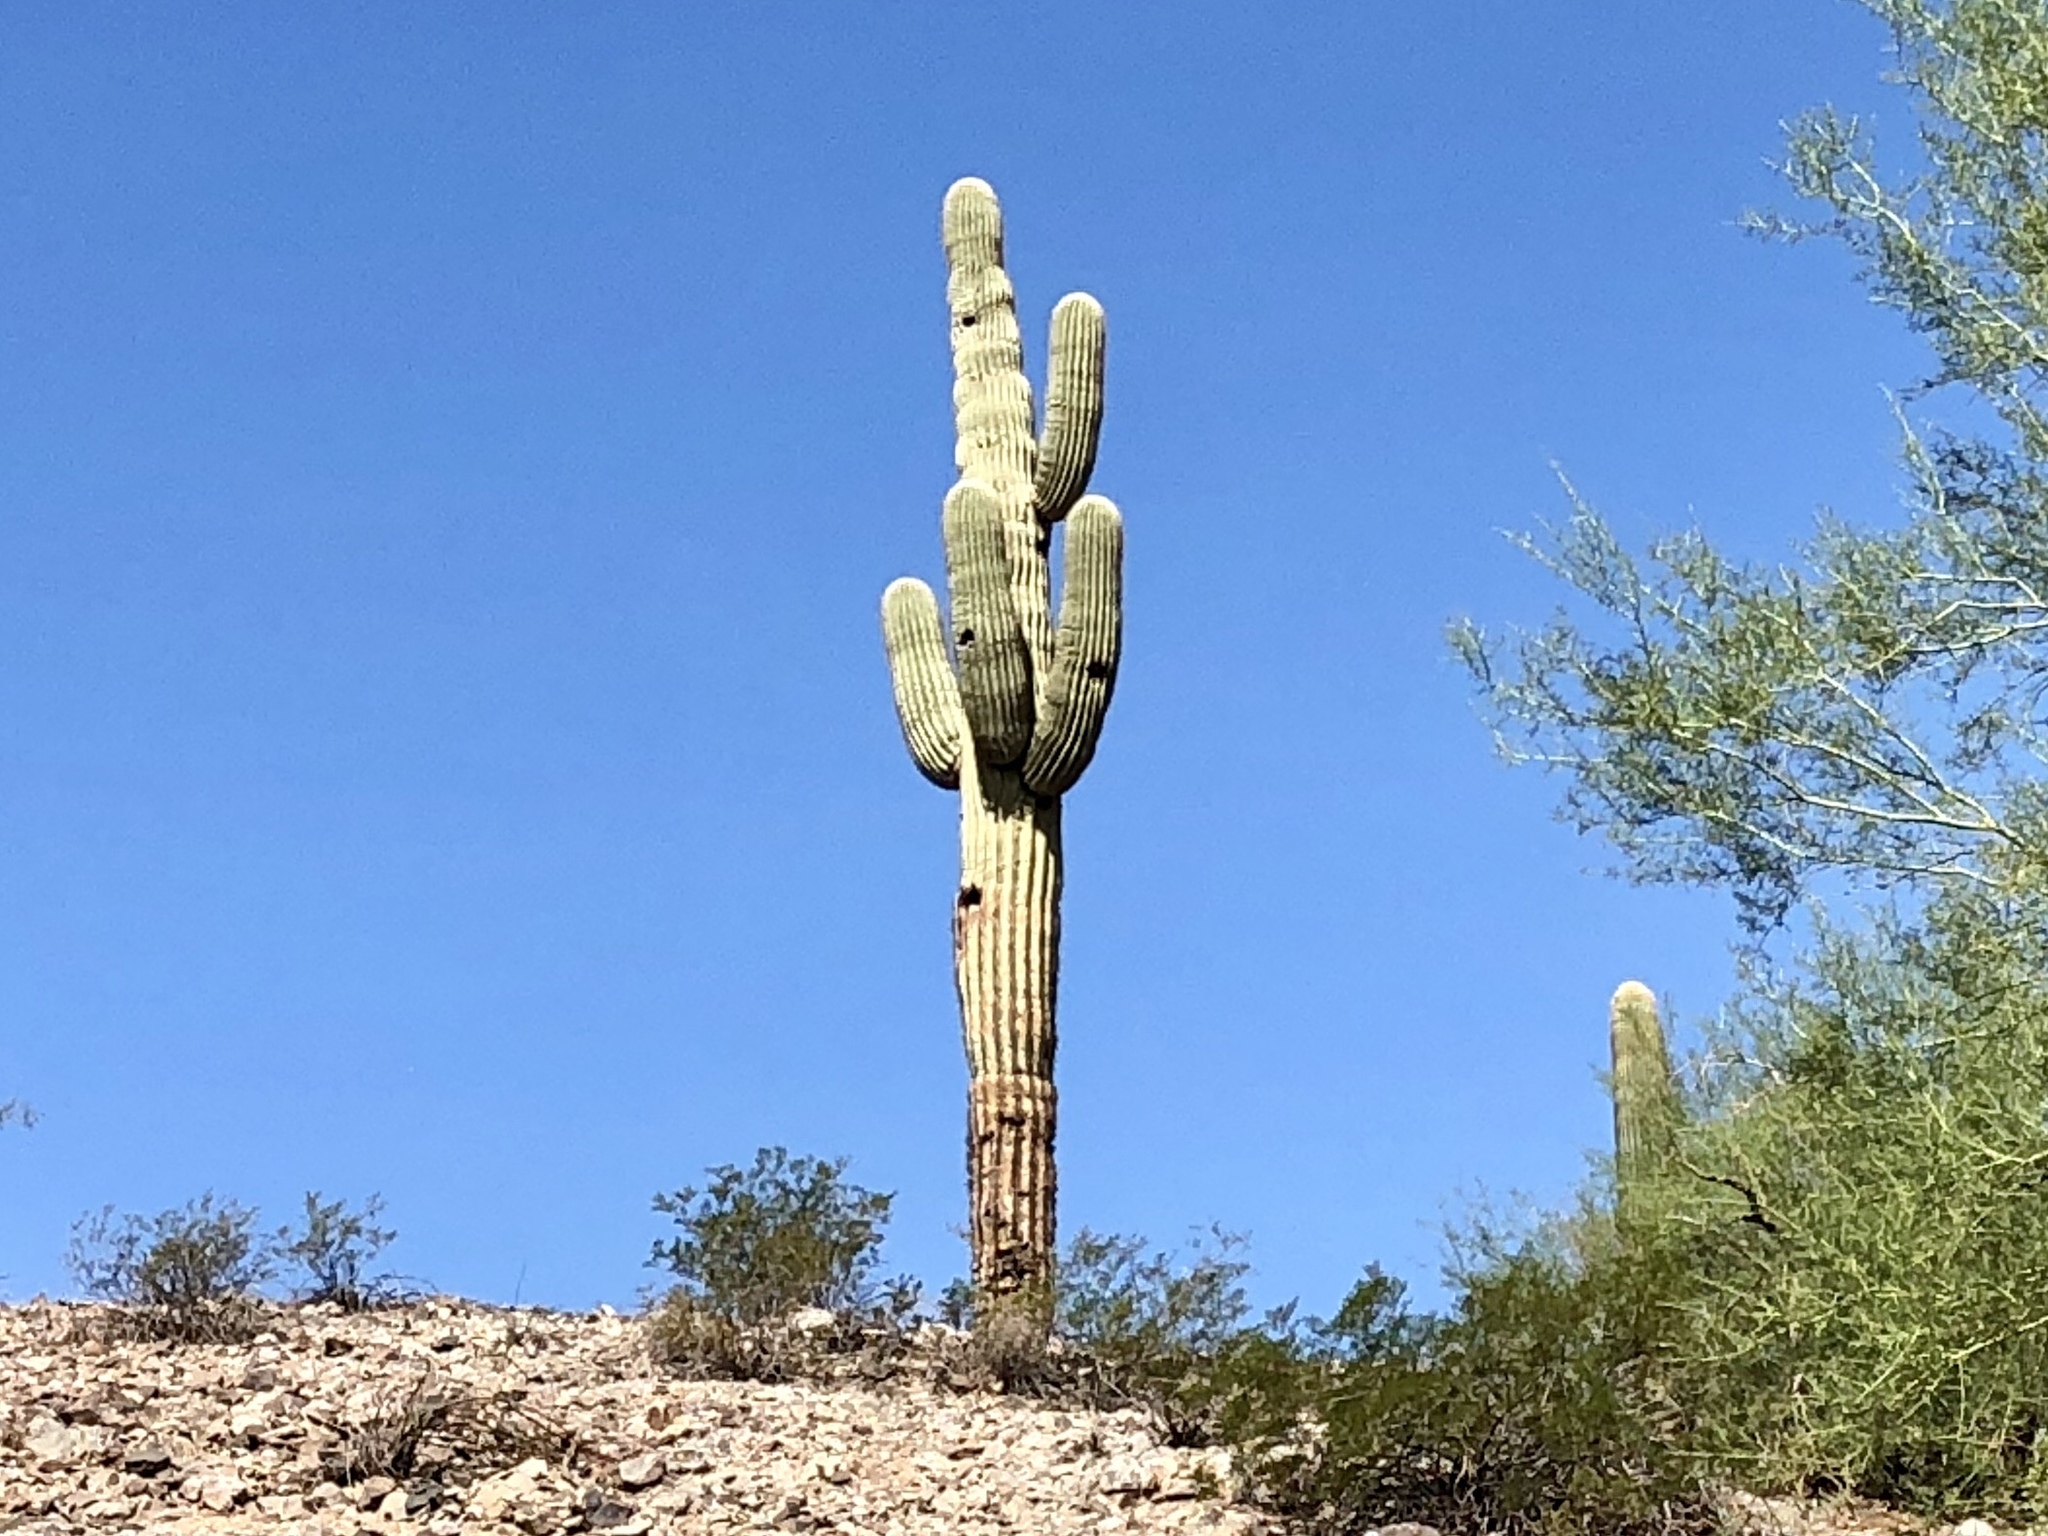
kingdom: Plantae
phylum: Tracheophyta
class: Magnoliopsida
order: Caryophyllales
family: Cactaceae
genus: Carnegiea
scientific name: Carnegiea gigantea
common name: Saguaro
